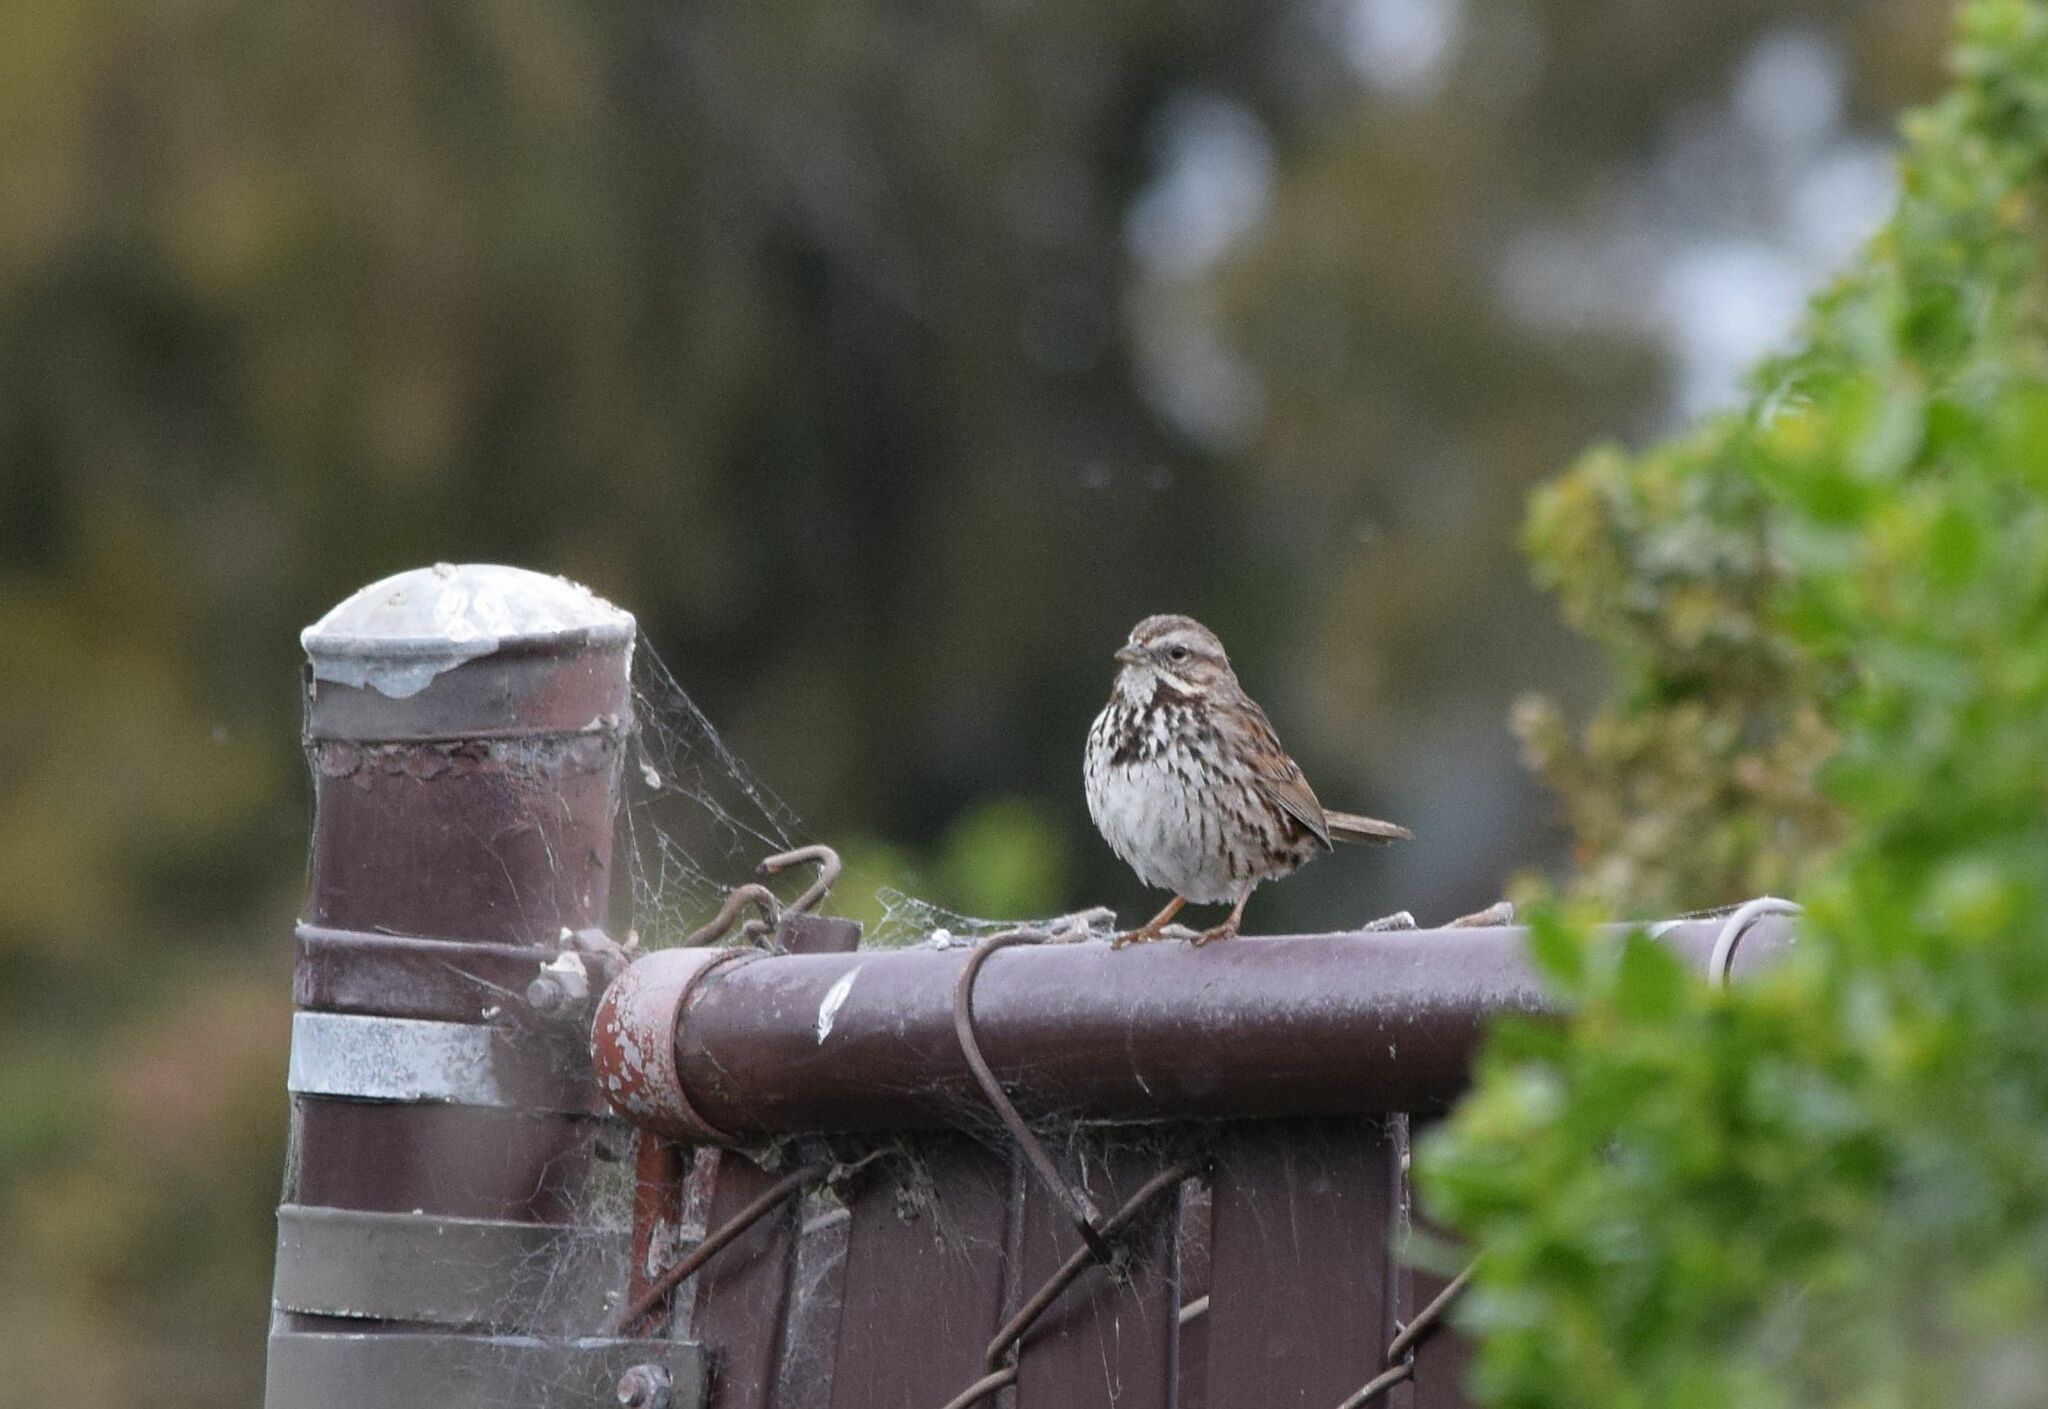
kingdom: Animalia
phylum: Chordata
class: Aves
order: Passeriformes
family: Passerellidae
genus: Melospiza
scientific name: Melospiza melodia
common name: Song sparrow
